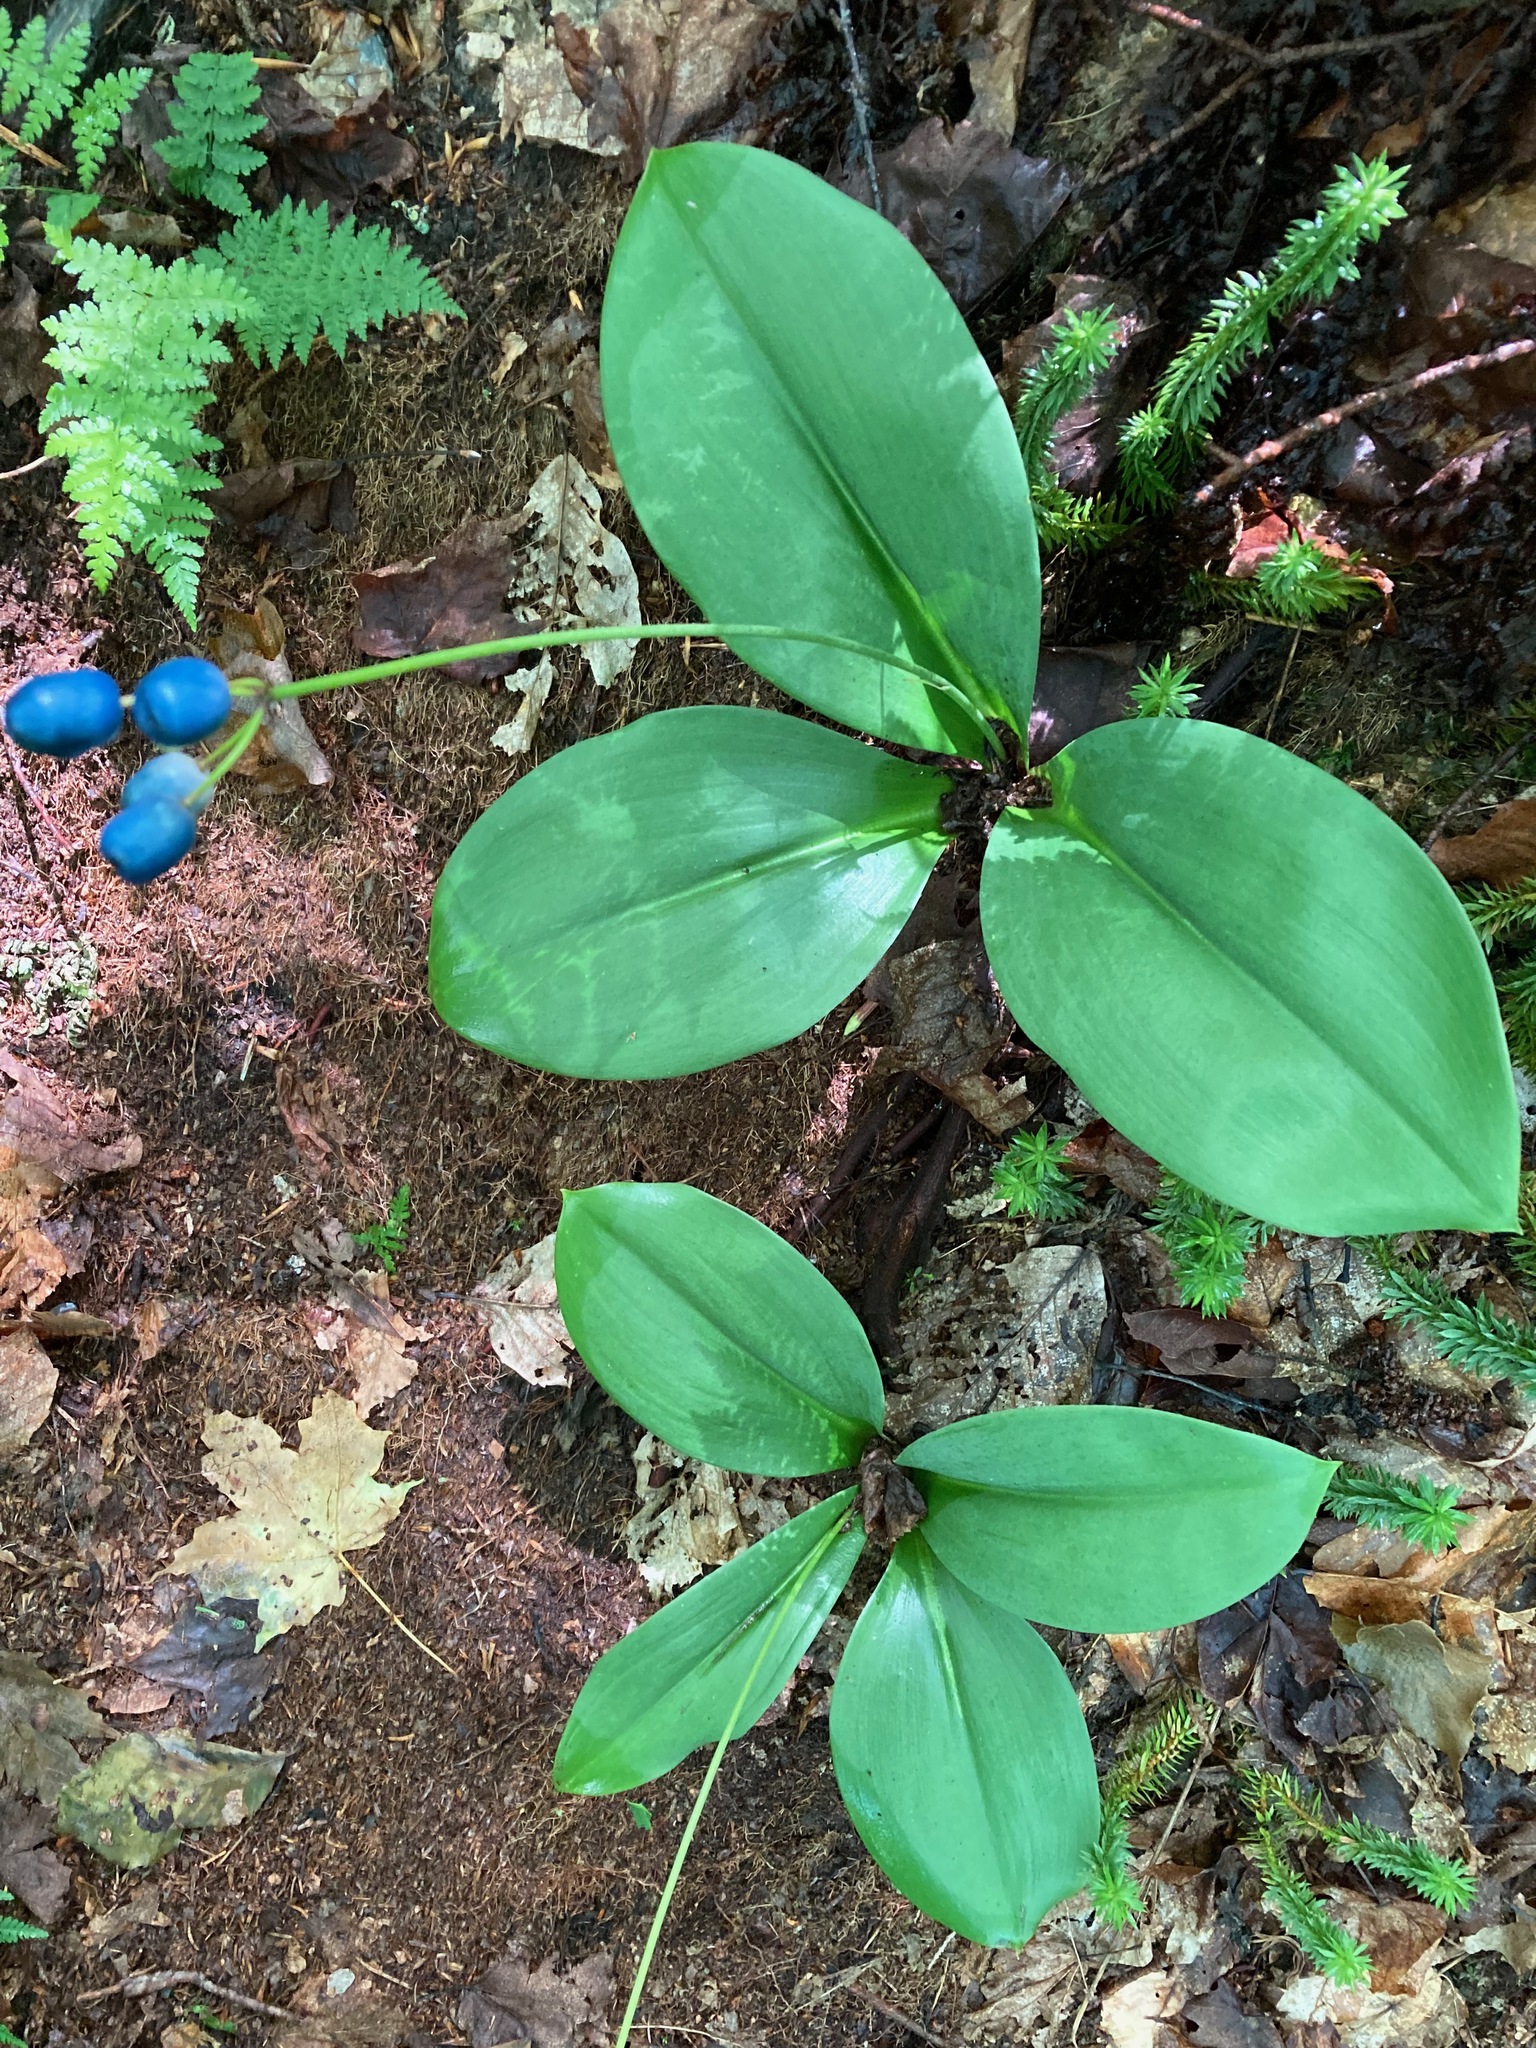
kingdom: Plantae
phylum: Tracheophyta
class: Liliopsida
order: Liliales
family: Liliaceae
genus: Clintonia
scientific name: Clintonia borealis
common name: Yellow clintonia
